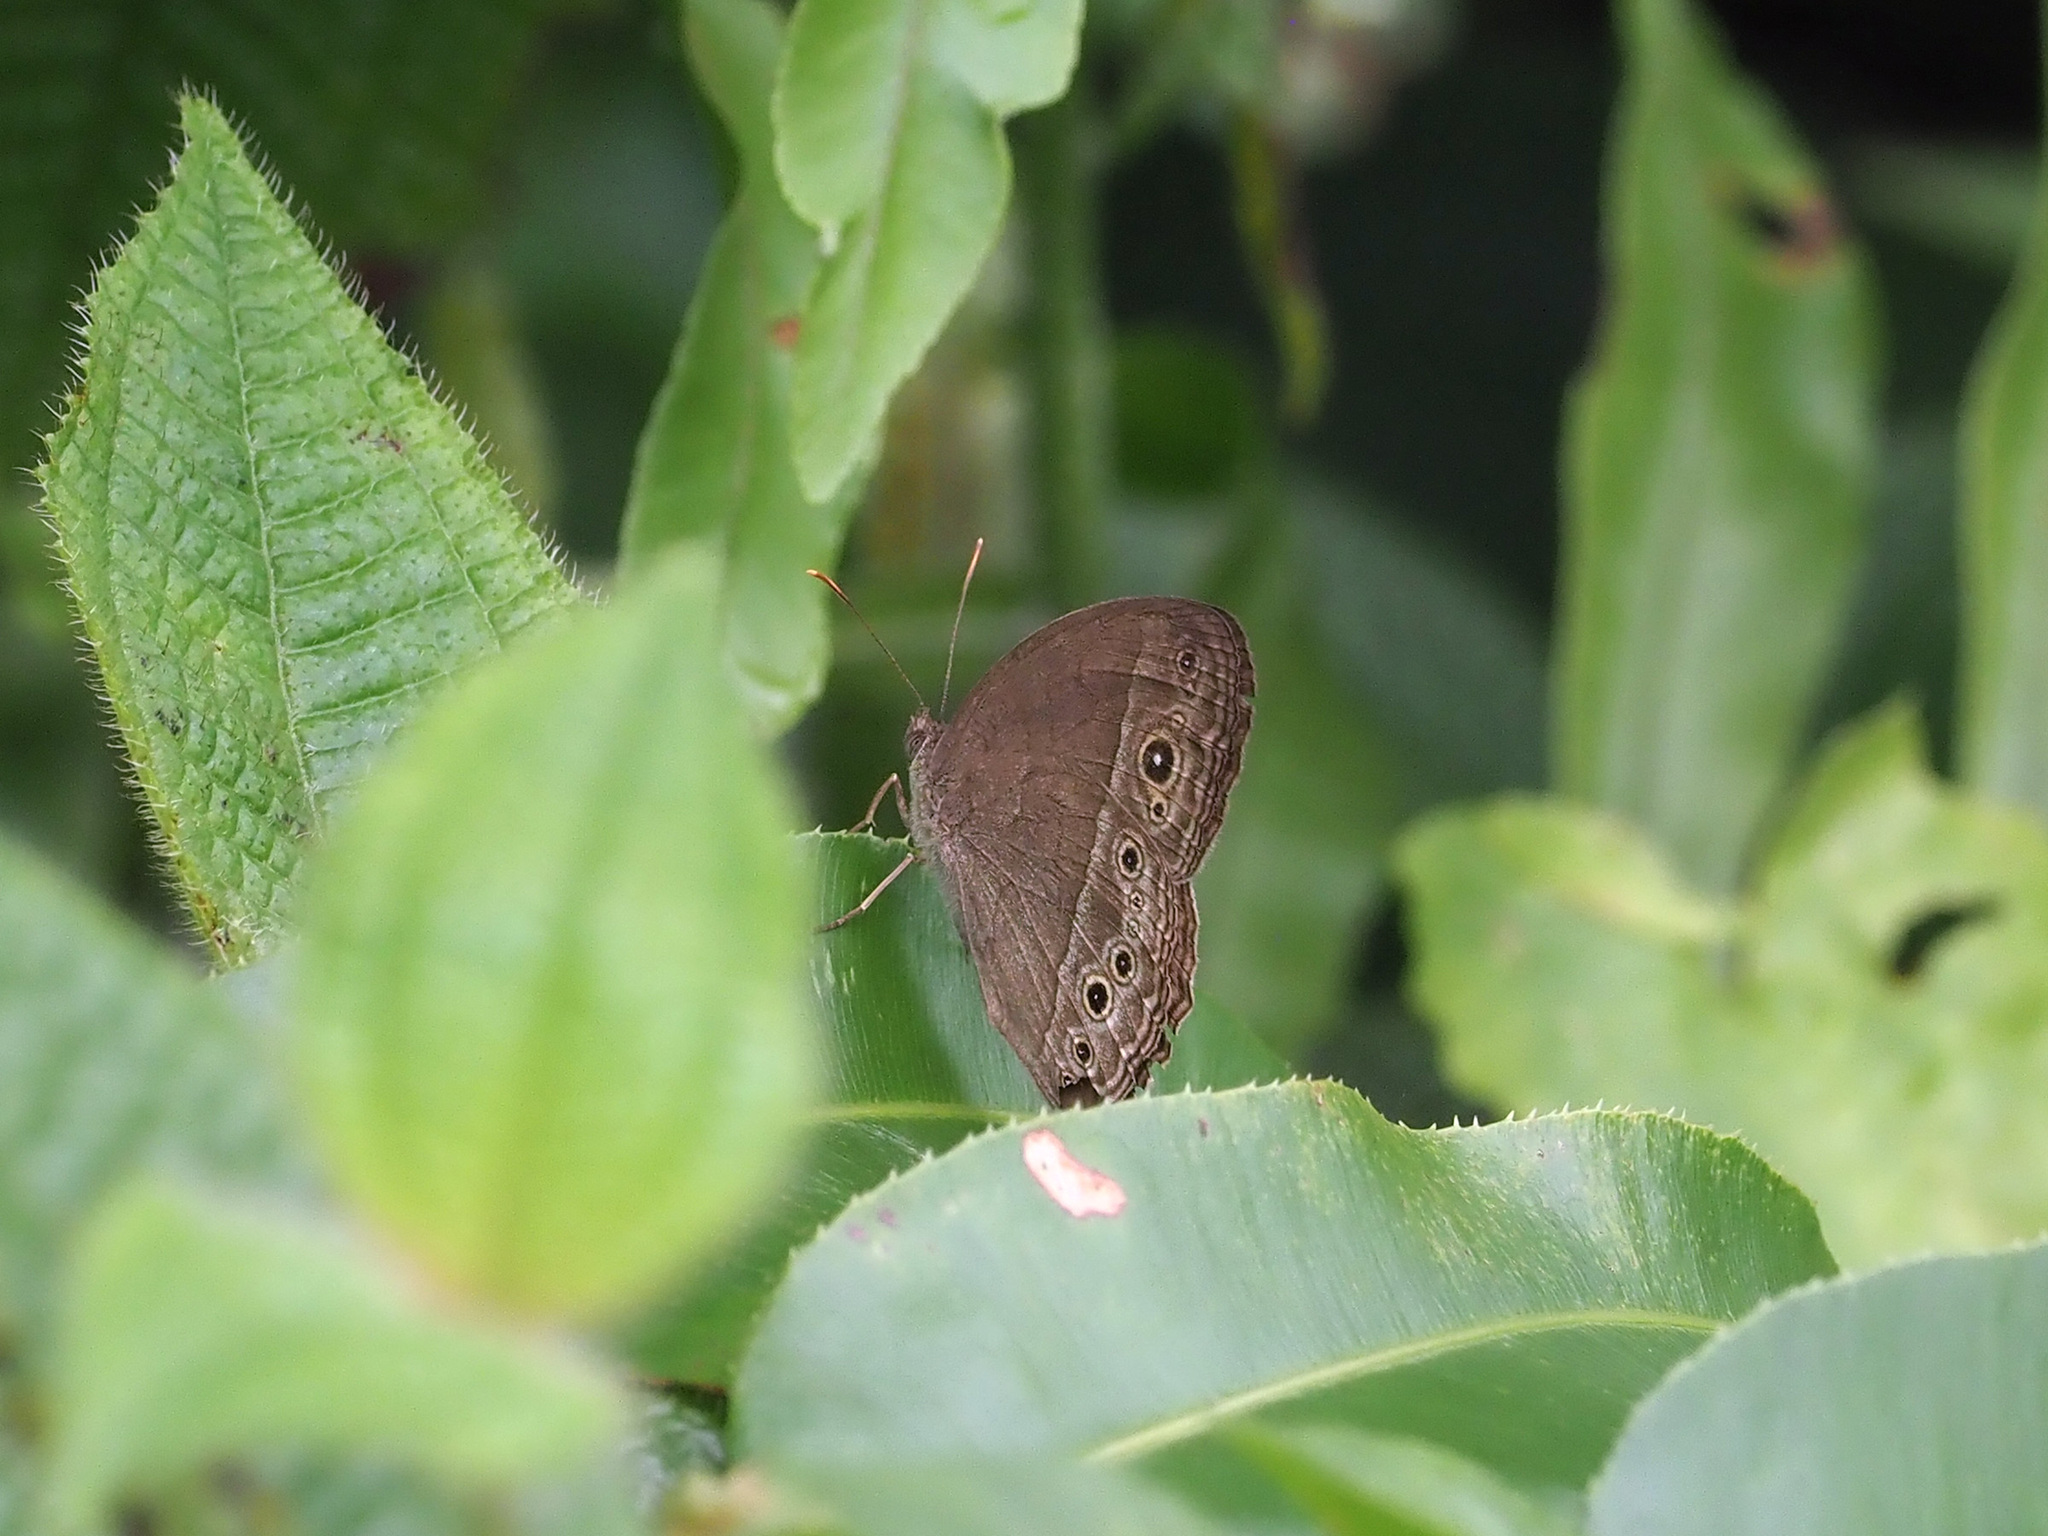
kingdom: Animalia
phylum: Arthropoda
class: Insecta
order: Lepidoptera
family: Nymphalidae
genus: Mycalesis
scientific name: Mycalesis perseoides
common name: Burmese bushbrown
